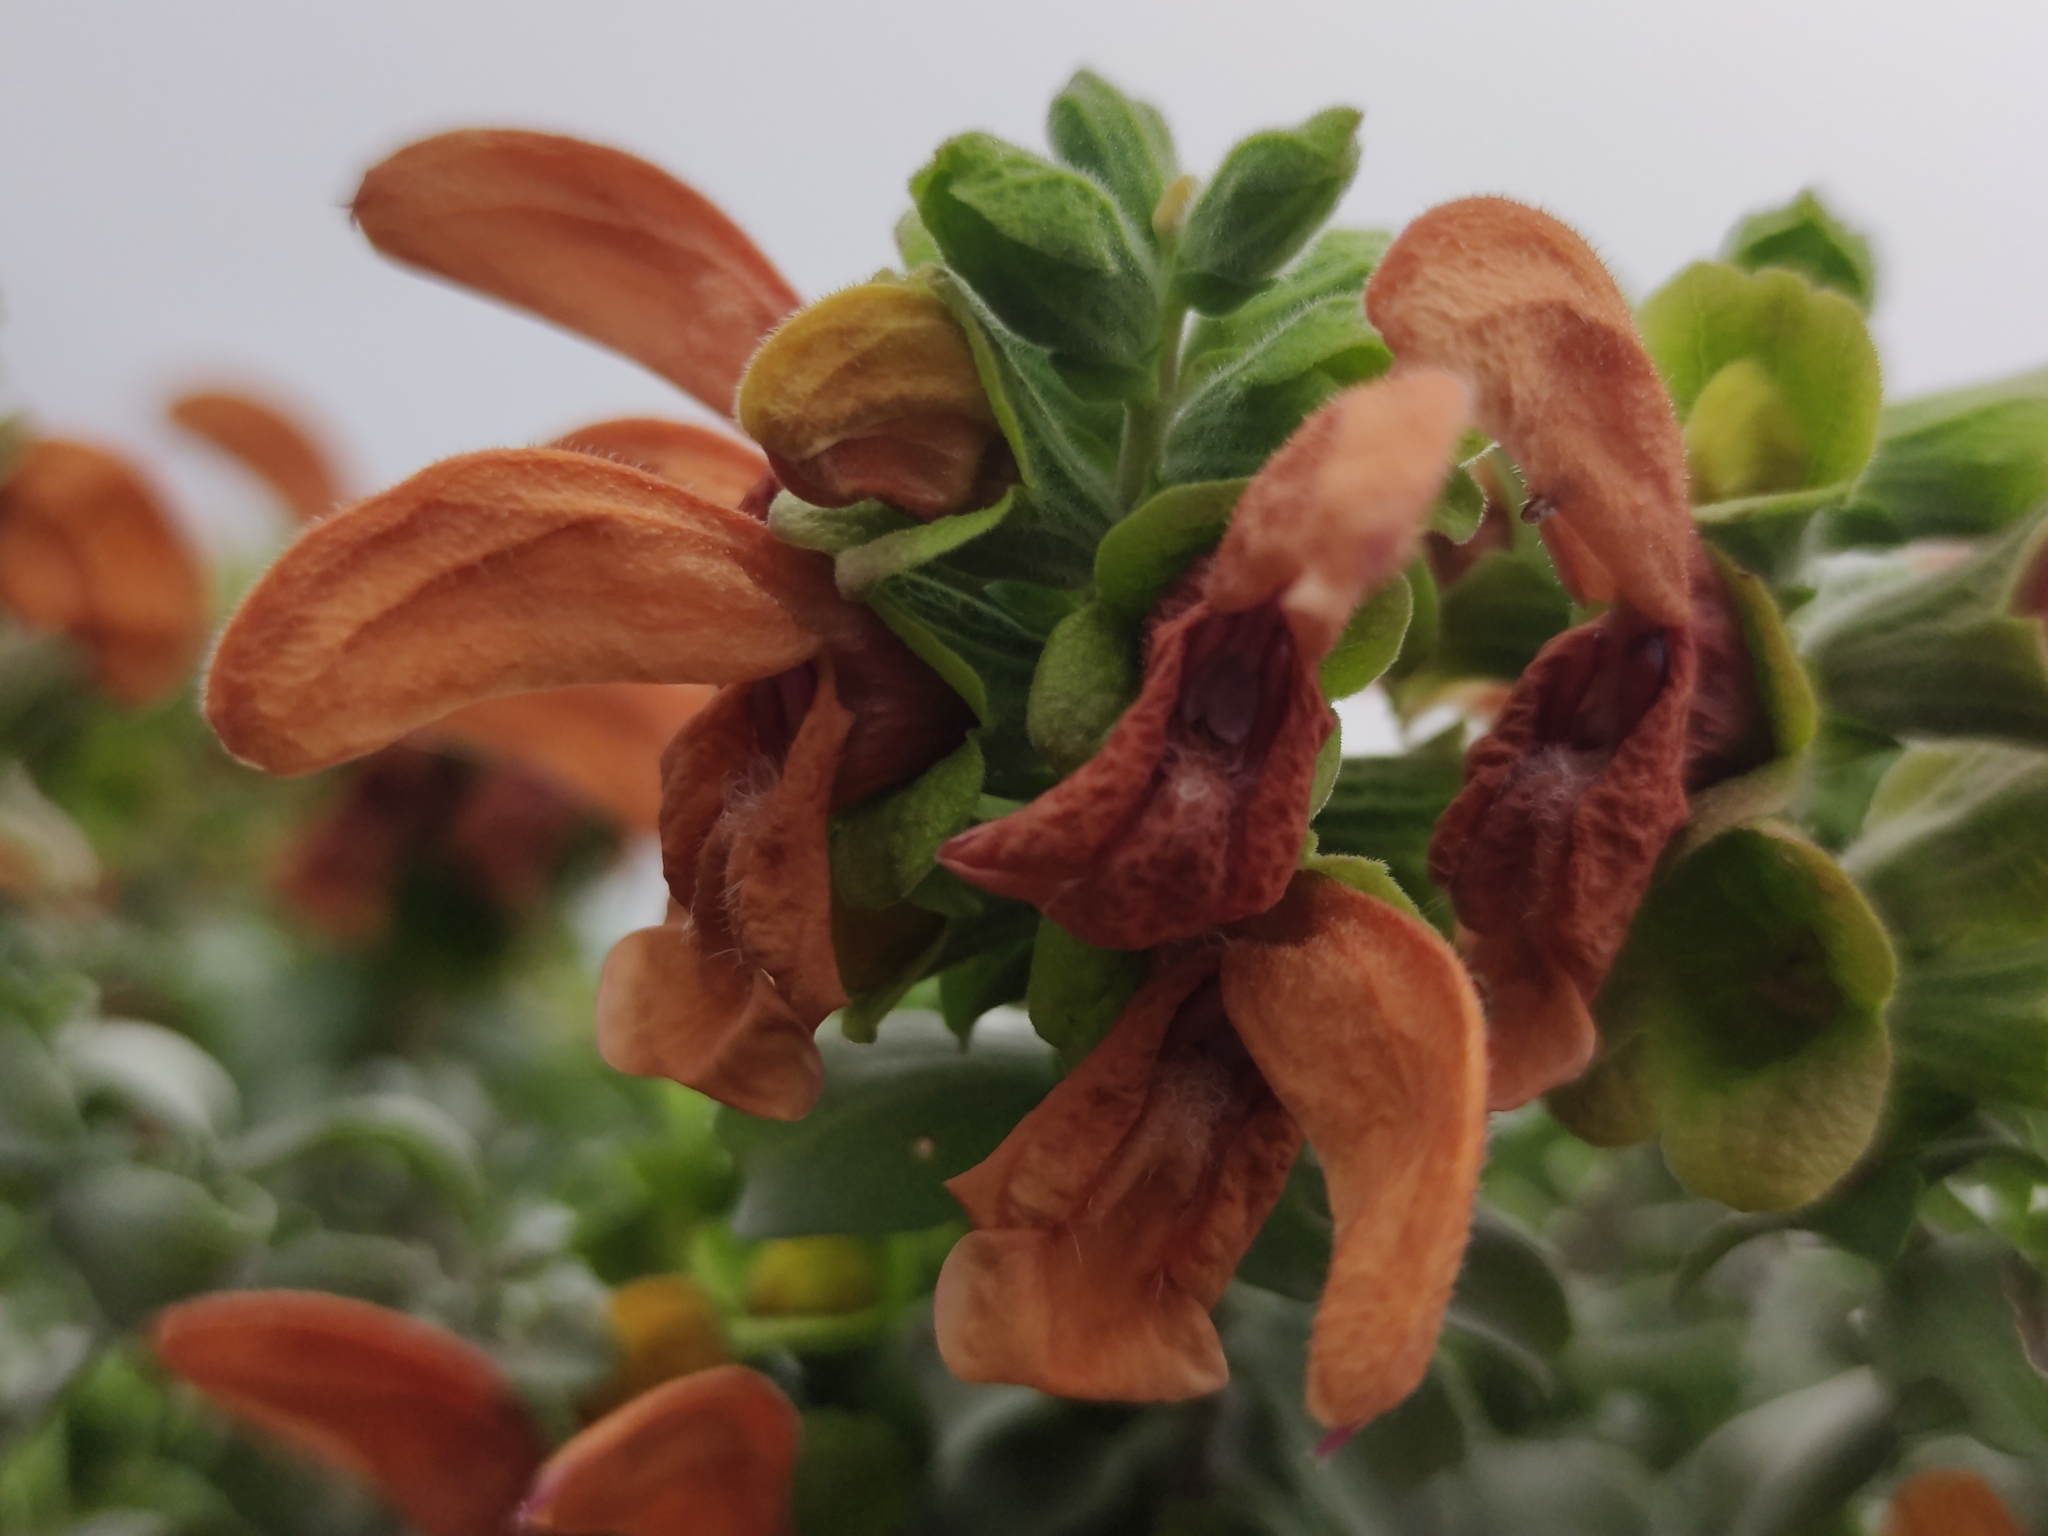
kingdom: Plantae
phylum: Tracheophyta
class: Magnoliopsida
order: Lamiales
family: Lamiaceae
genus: Salvia
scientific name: Salvia aurea
